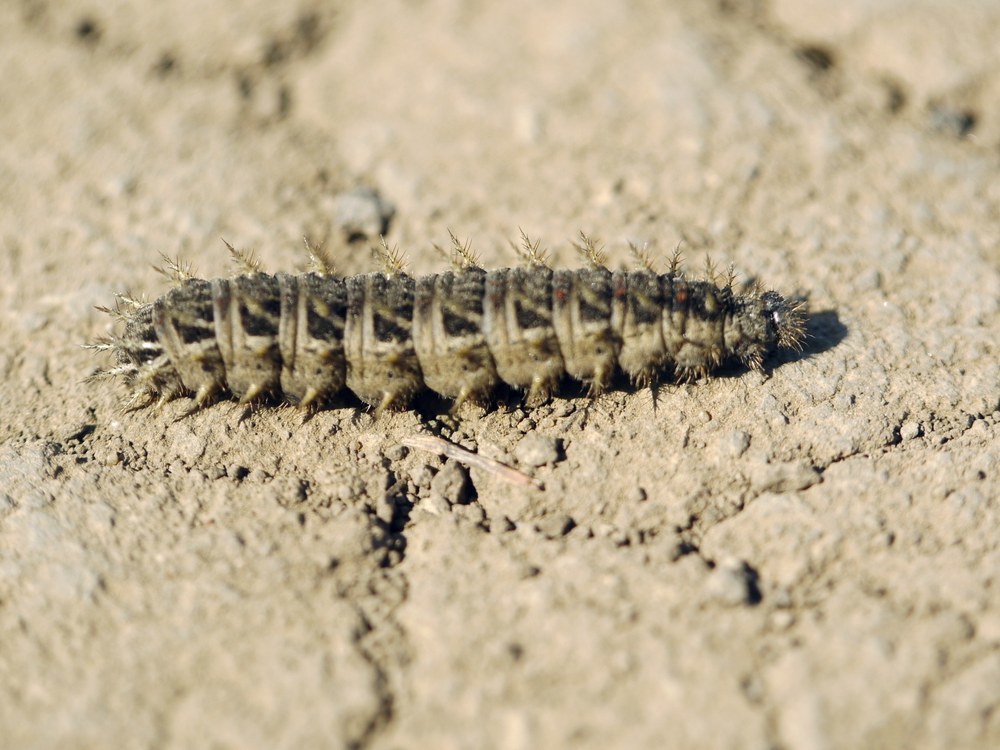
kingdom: Animalia
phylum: Arthropoda
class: Insecta
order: Lepidoptera
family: Nymphalidae
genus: Damora
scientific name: Damora pandora
